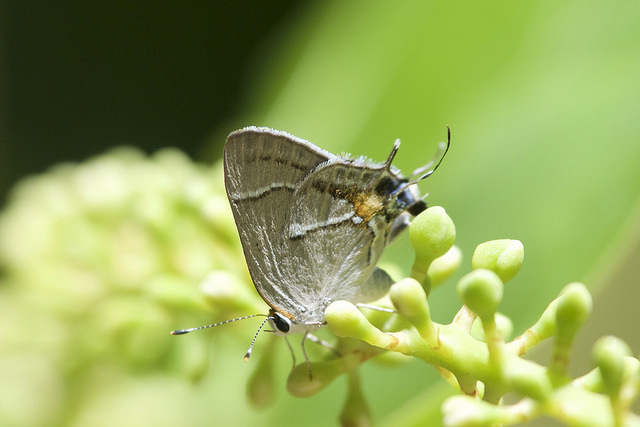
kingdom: Animalia
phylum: Arthropoda
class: Insecta
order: Lepidoptera
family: Lycaenidae
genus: Thecla
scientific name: Thecla martialis
